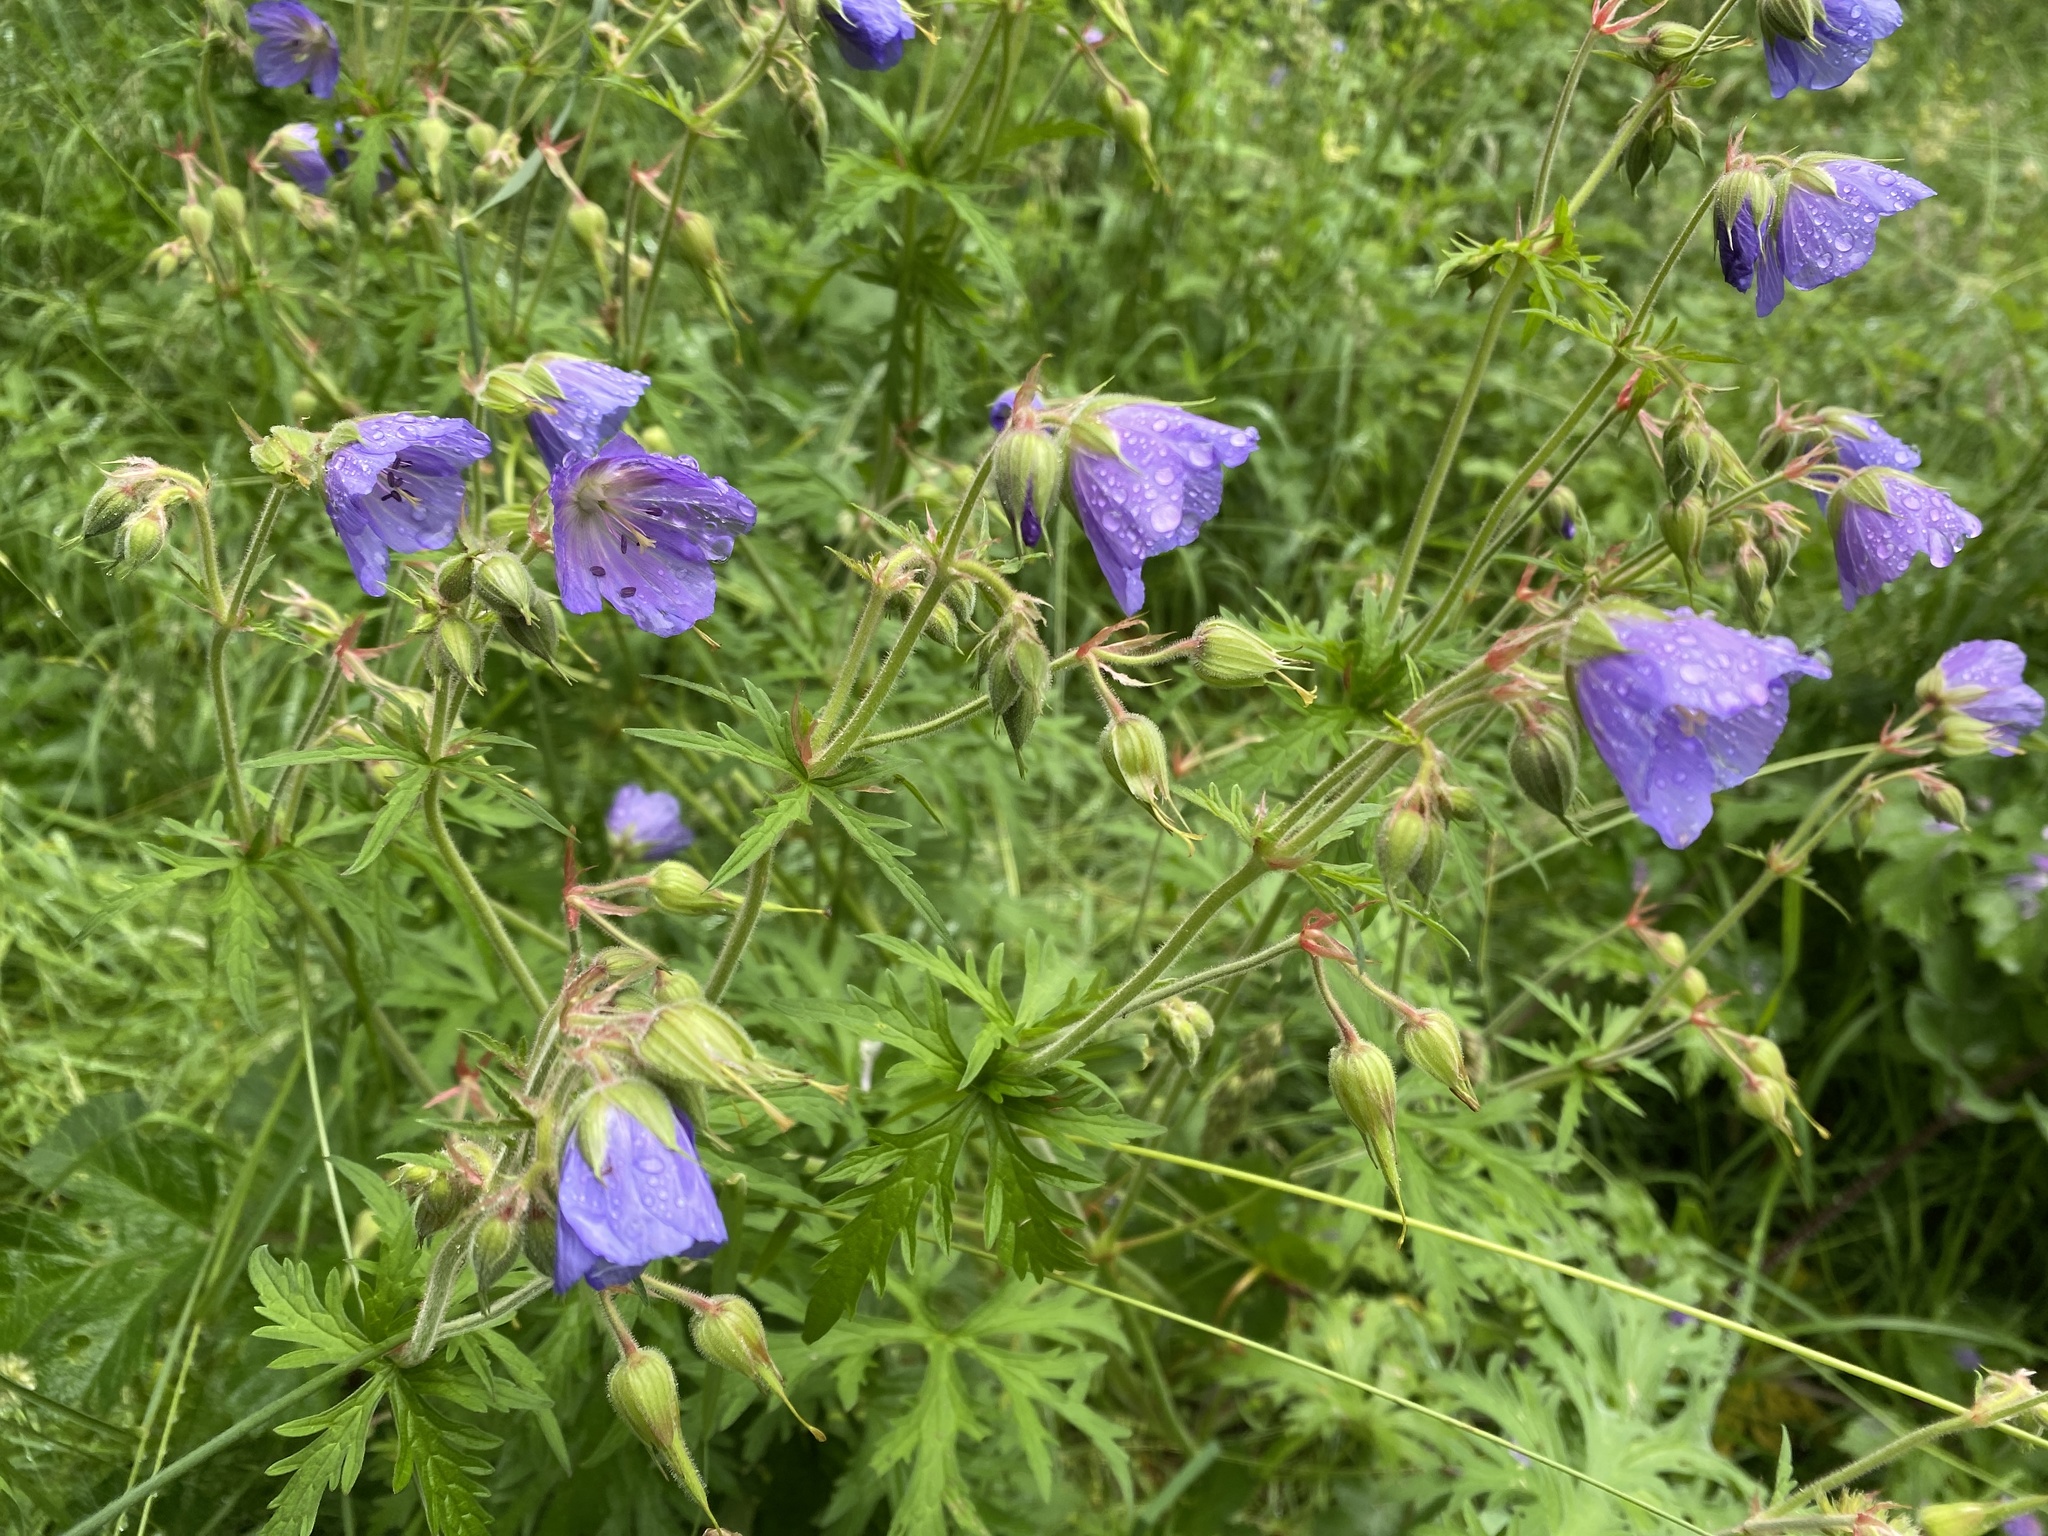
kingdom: Plantae
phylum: Tracheophyta
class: Magnoliopsida
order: Geraniales
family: Geraniaceae
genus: Geranium
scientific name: Geranium pratense
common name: Meadow crane's-bill
